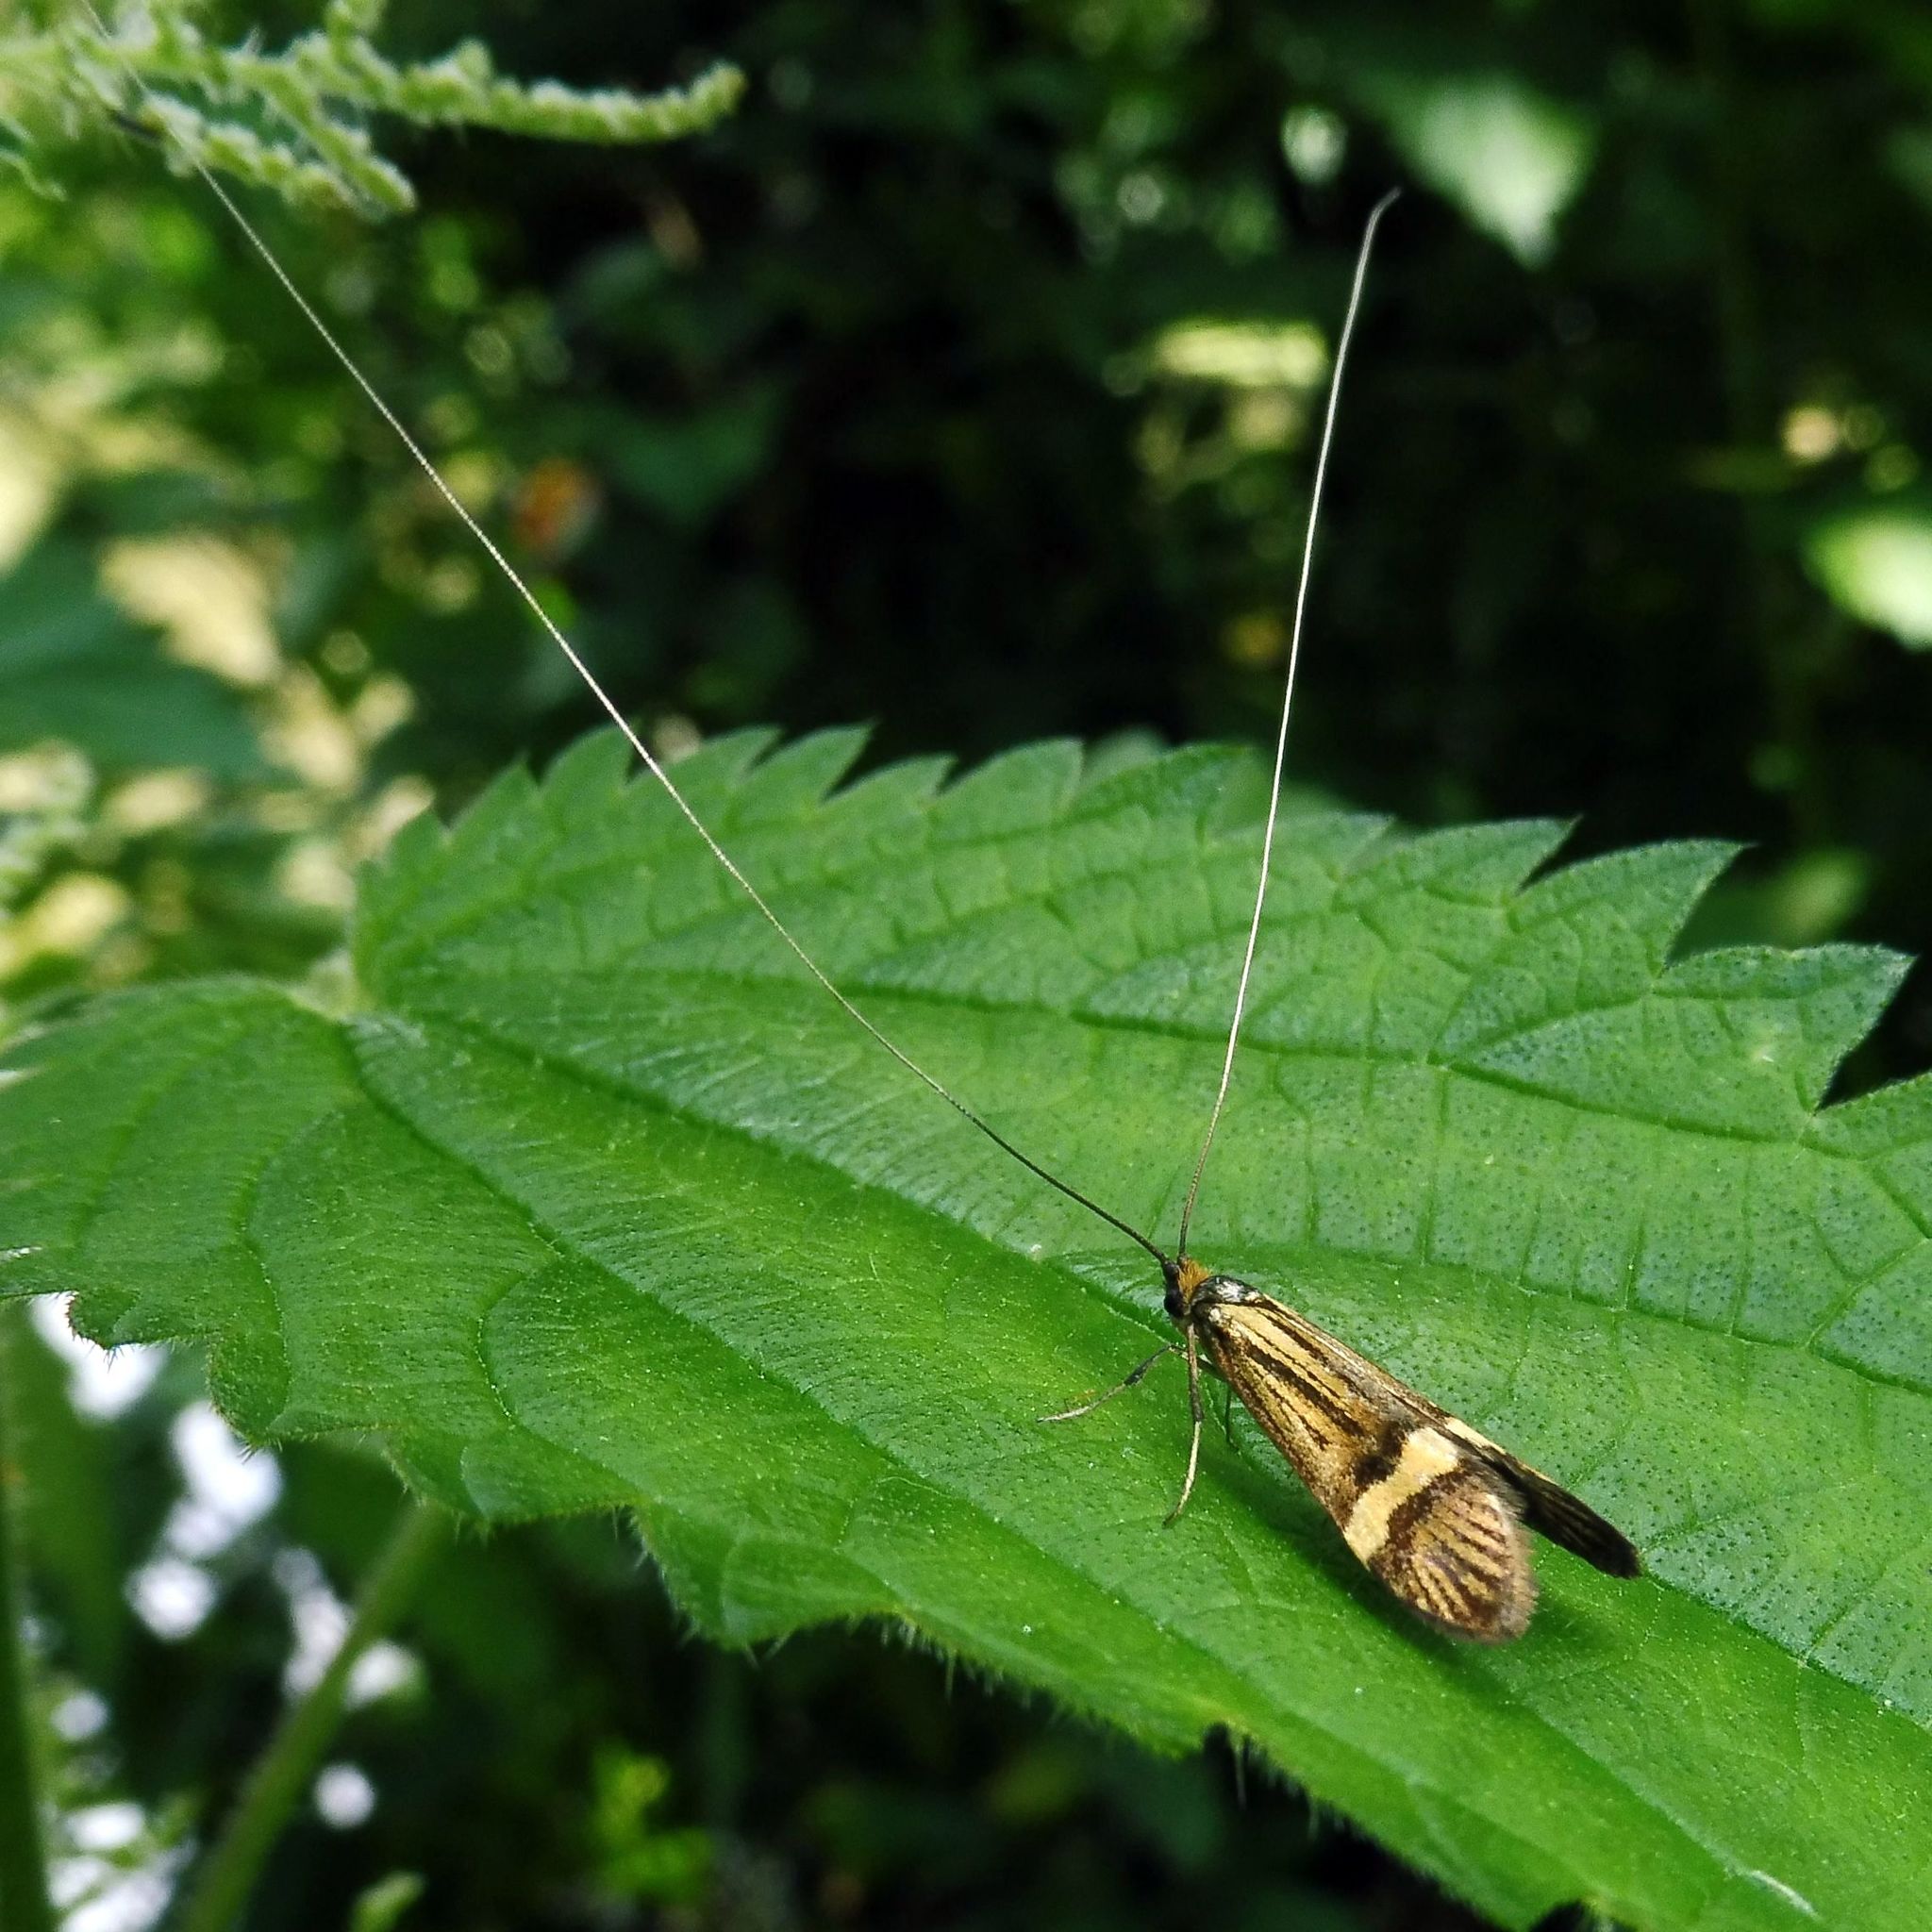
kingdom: Animalia
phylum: Arthropoda
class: Insecta
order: Lepidoptera
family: Adelidae
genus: Nemophora
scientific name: Nemophora degeerella
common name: Yellow-barred long-horn
